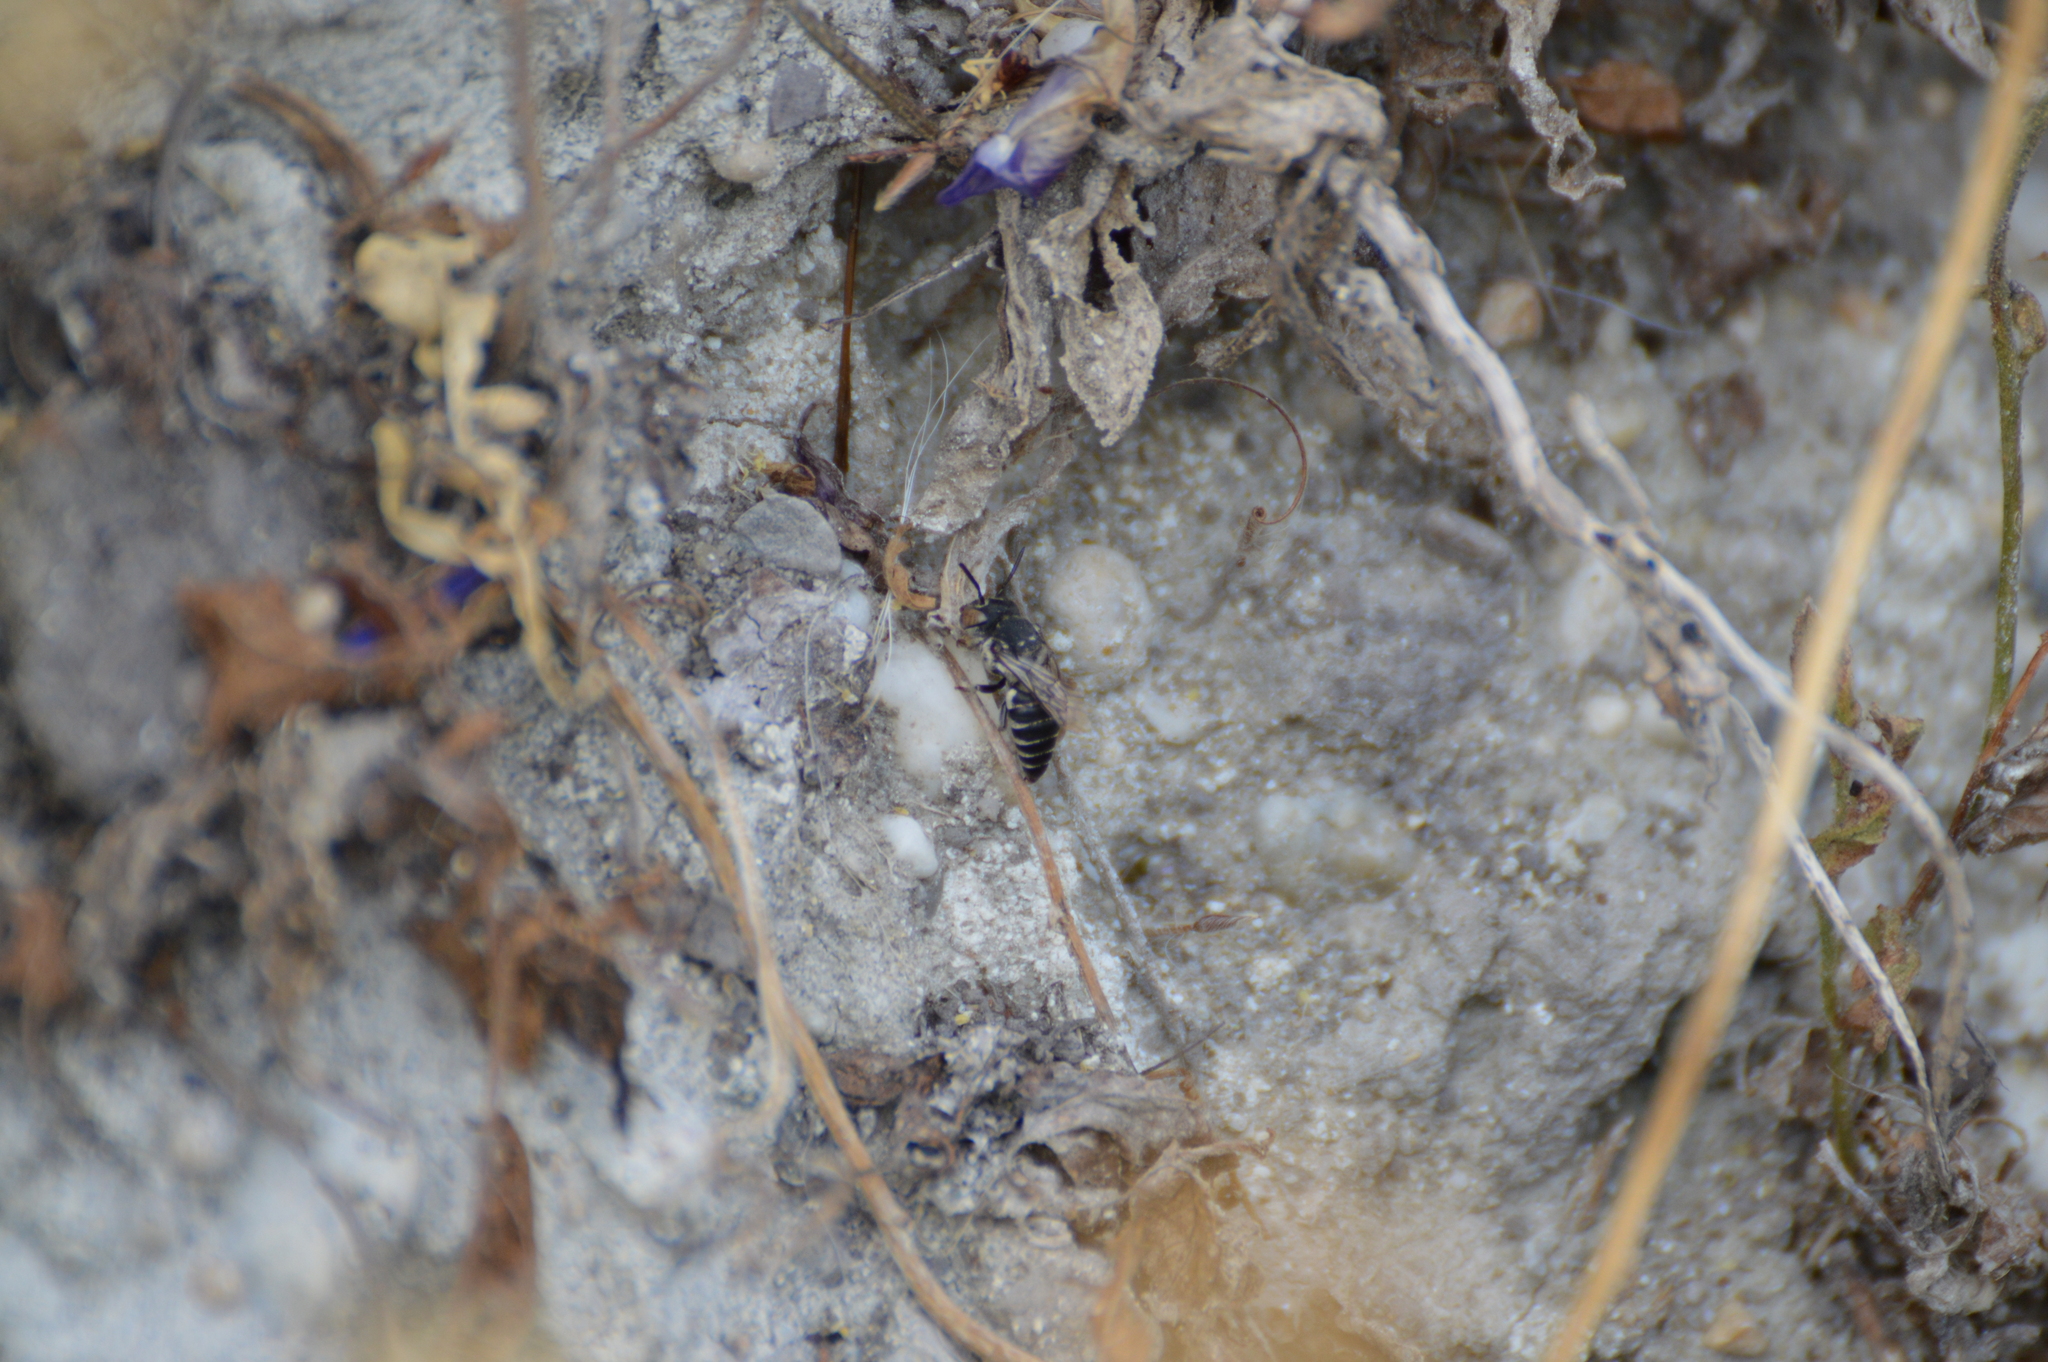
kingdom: Animalia
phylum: Arthropoda
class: Insecta
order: Hymenoptera
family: Megachilidae
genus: Coelioxys
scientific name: Coelioxys
